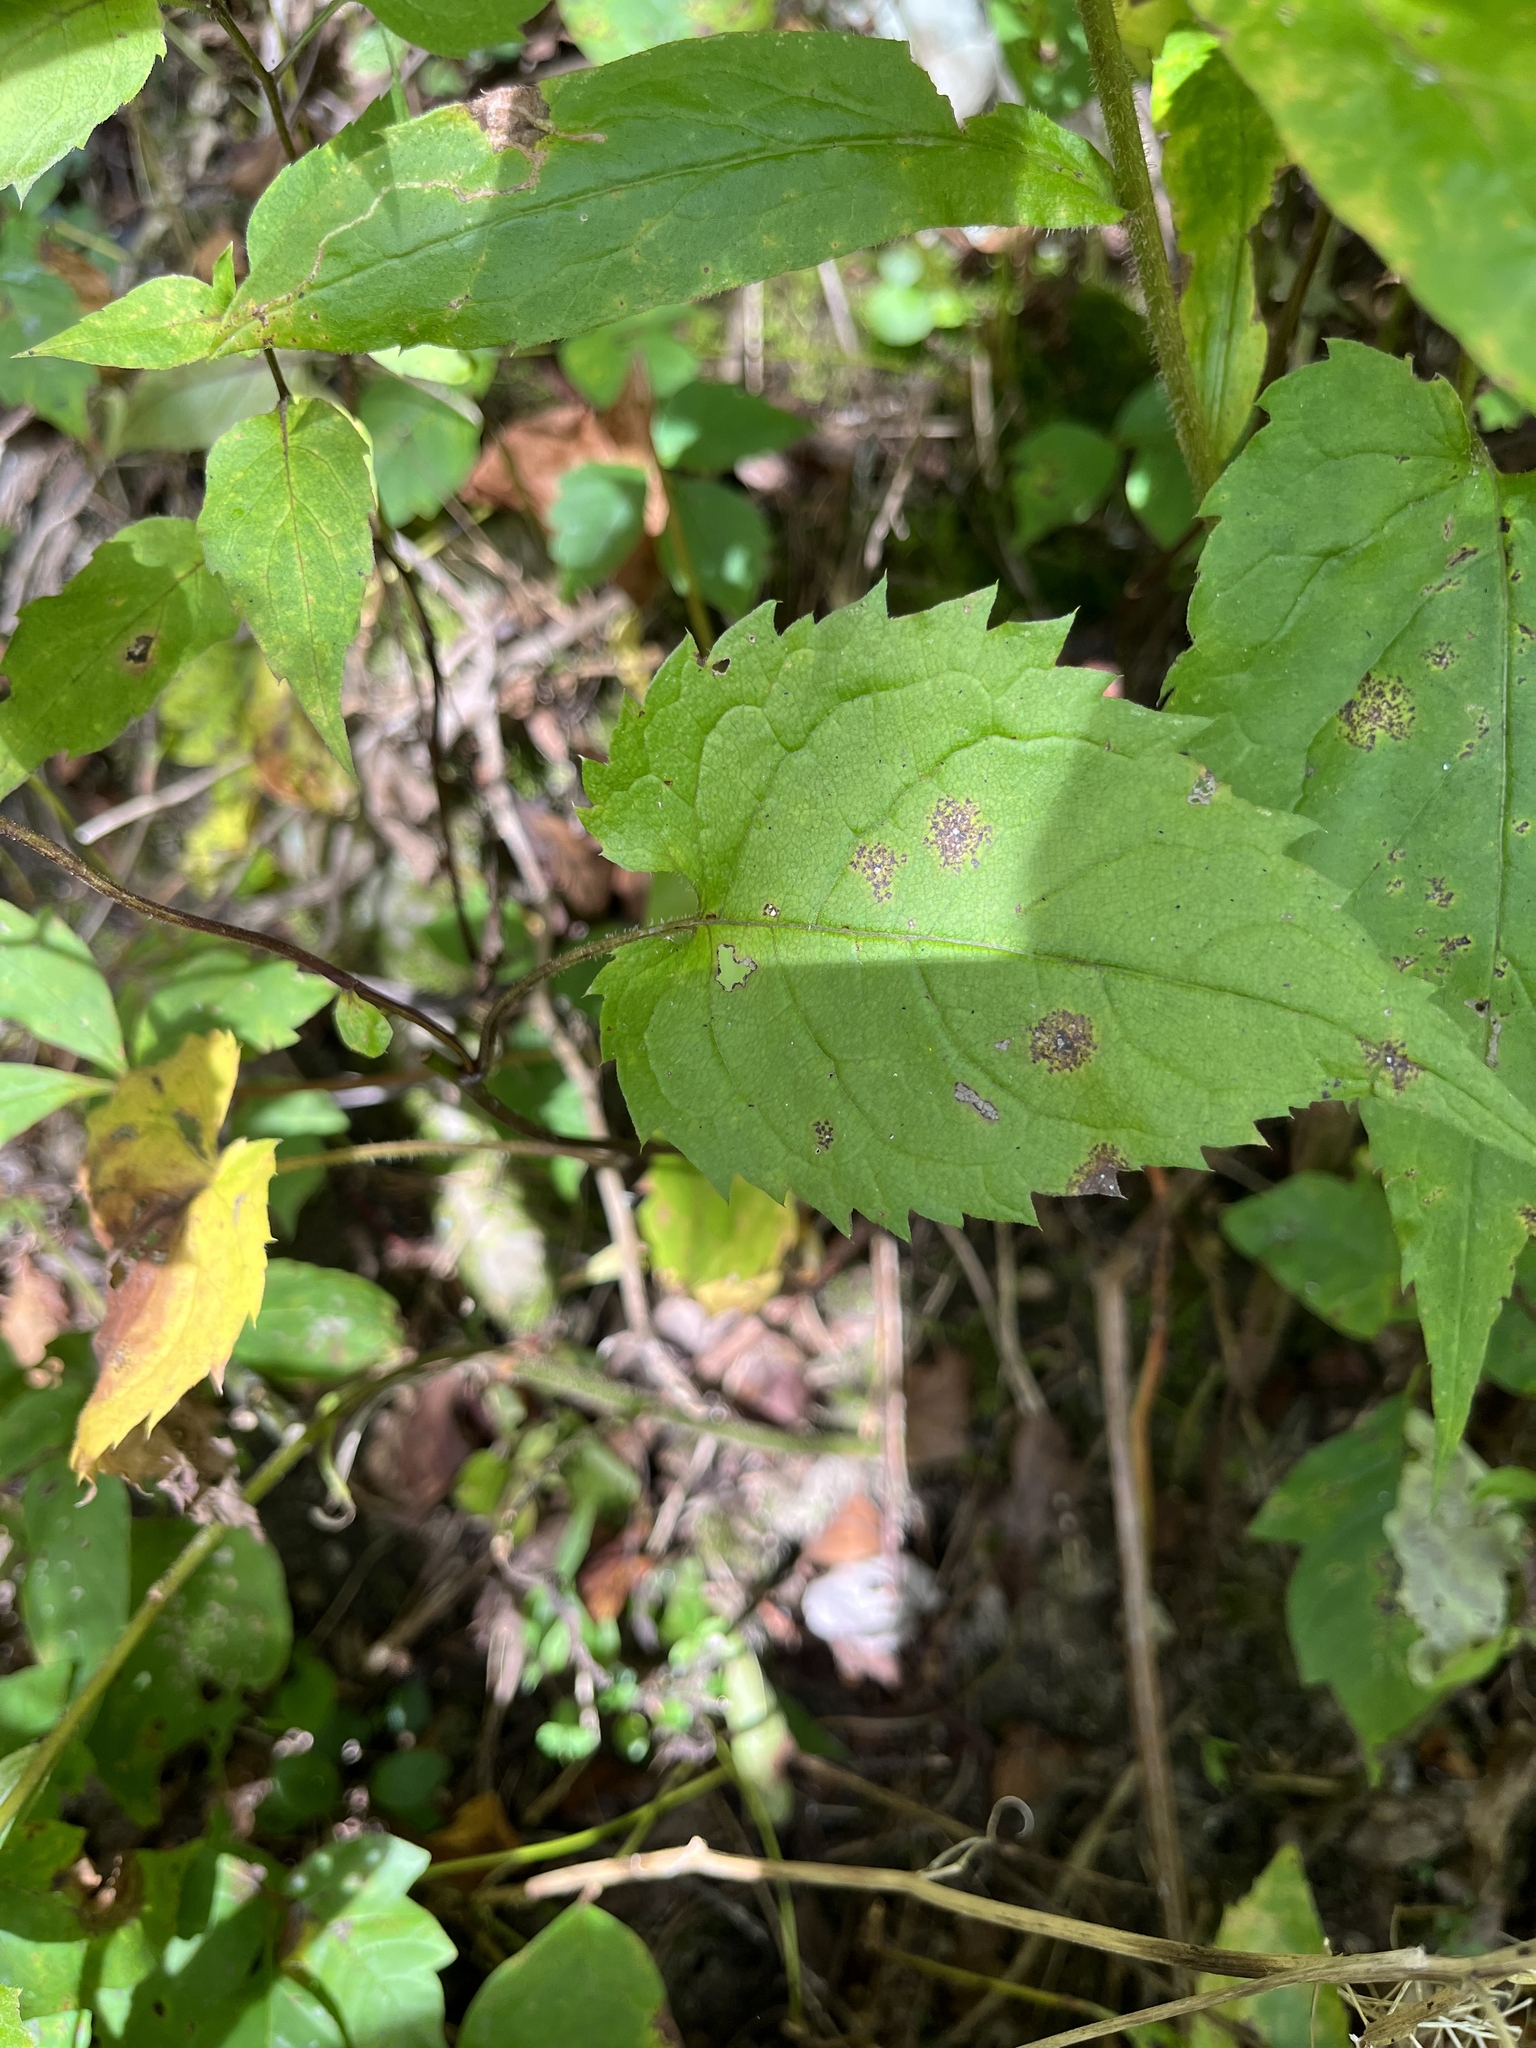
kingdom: Plantae
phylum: Tracheophyta
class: Magnoliopsida
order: Asterales
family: Asteraceae
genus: Eurybia
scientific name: Eurybia divaricata
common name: White wood aster
